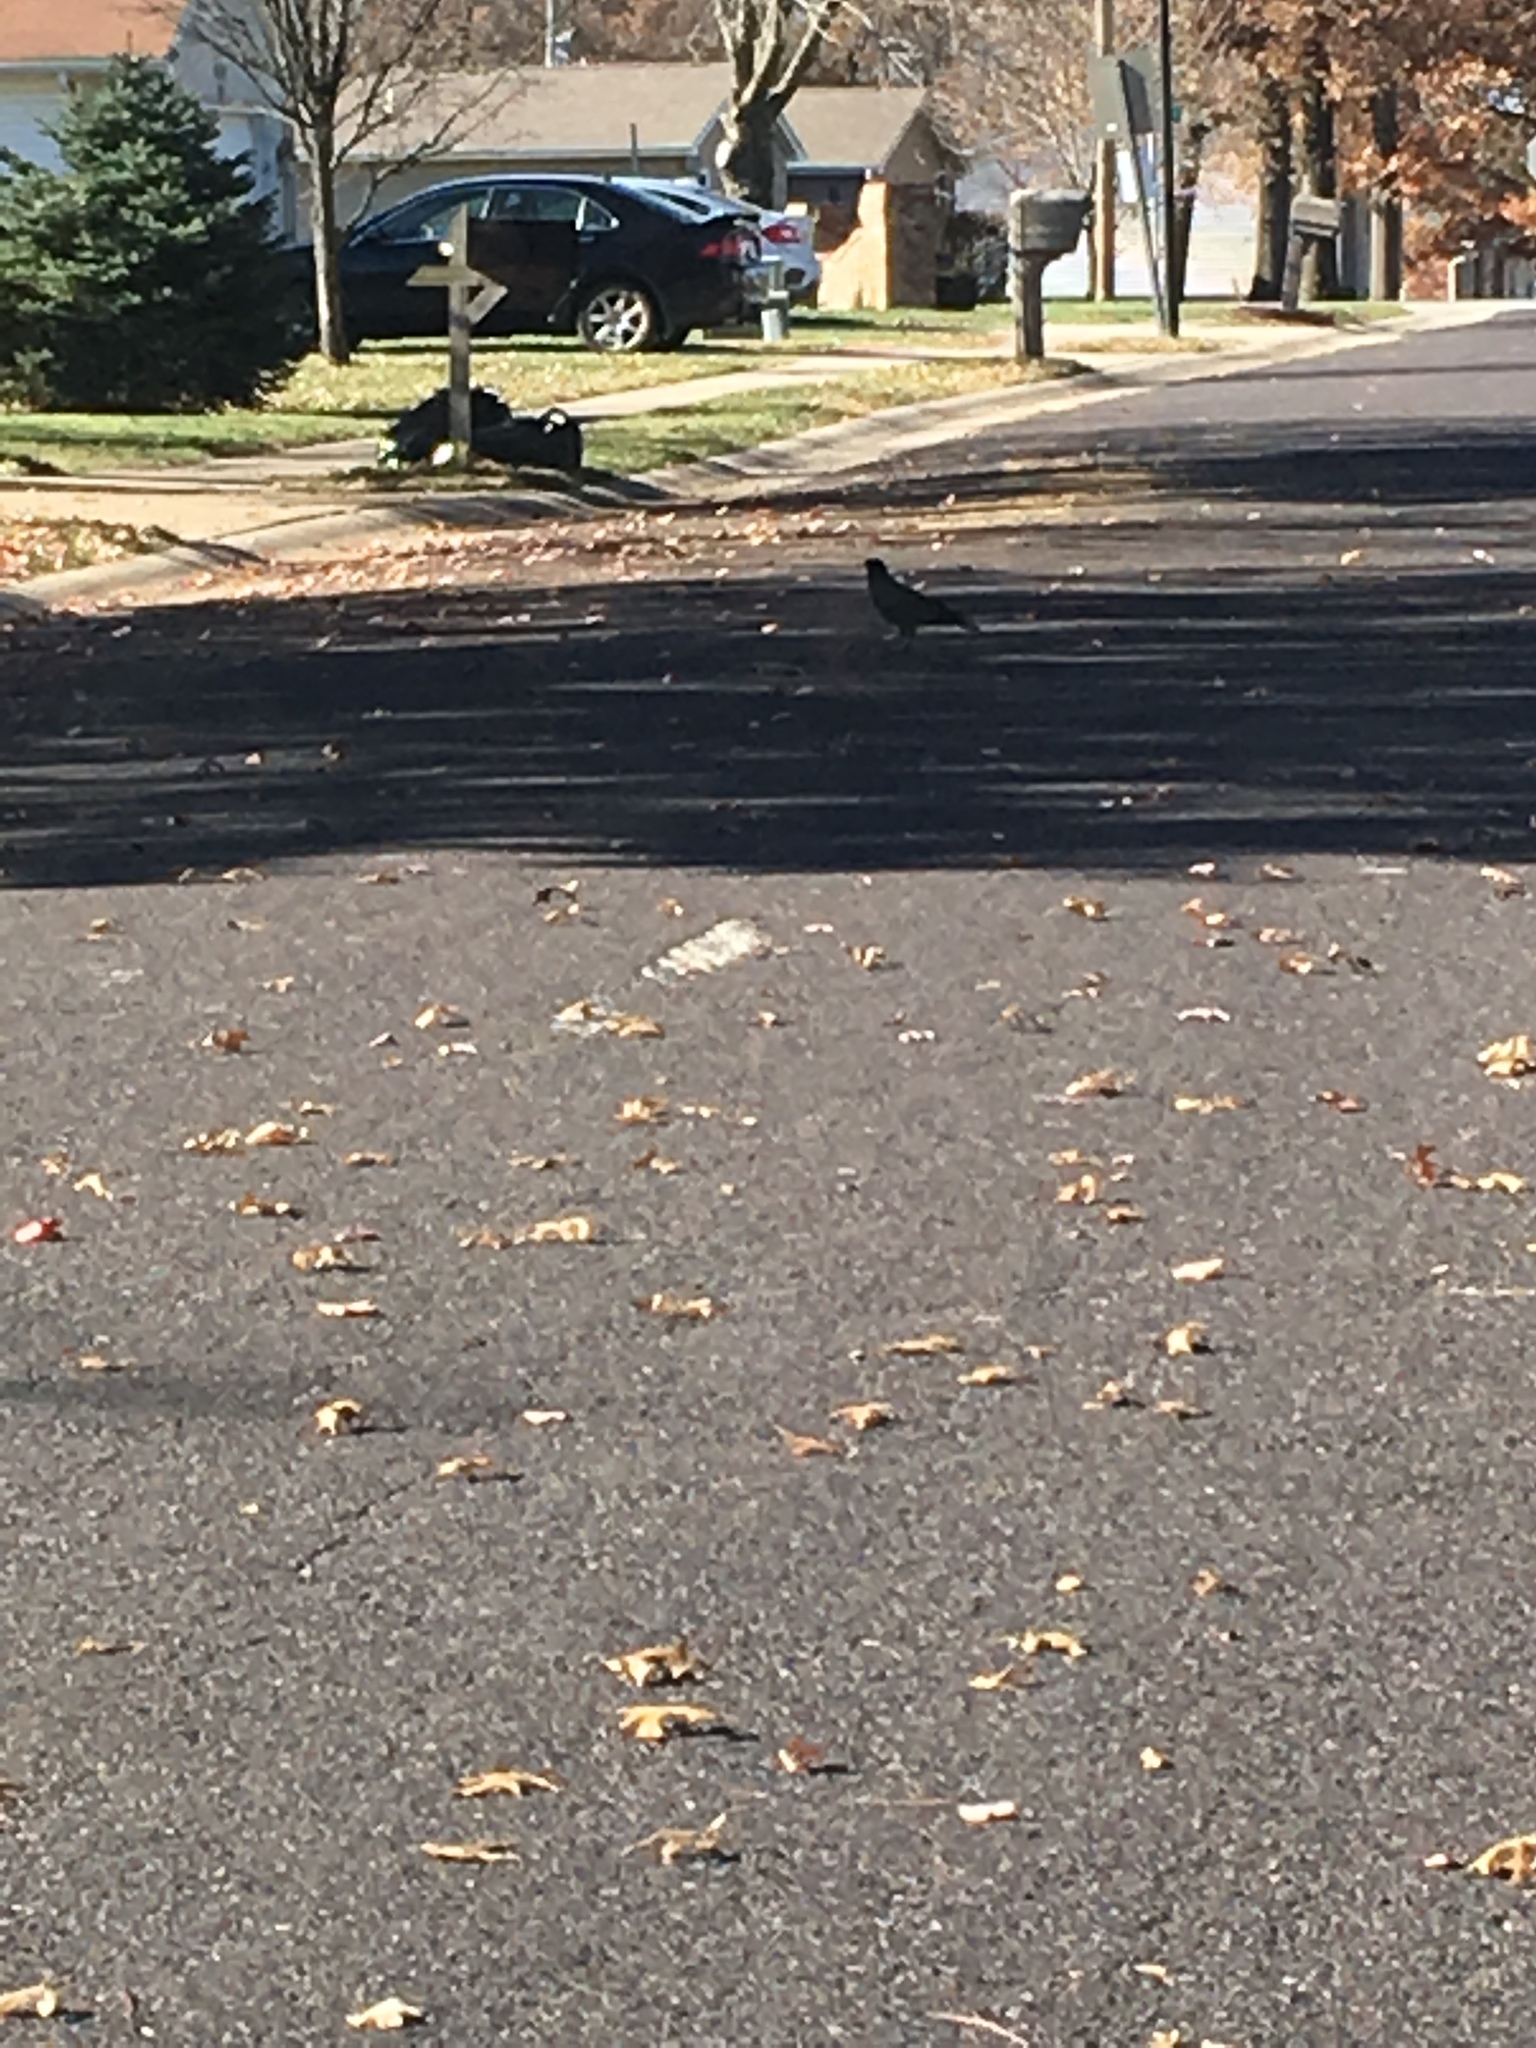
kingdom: Animalia
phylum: Chordata
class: Aves
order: Passeriformes
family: Corvidae
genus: Corvus
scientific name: Corvus brachyrhynchos
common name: American crow
